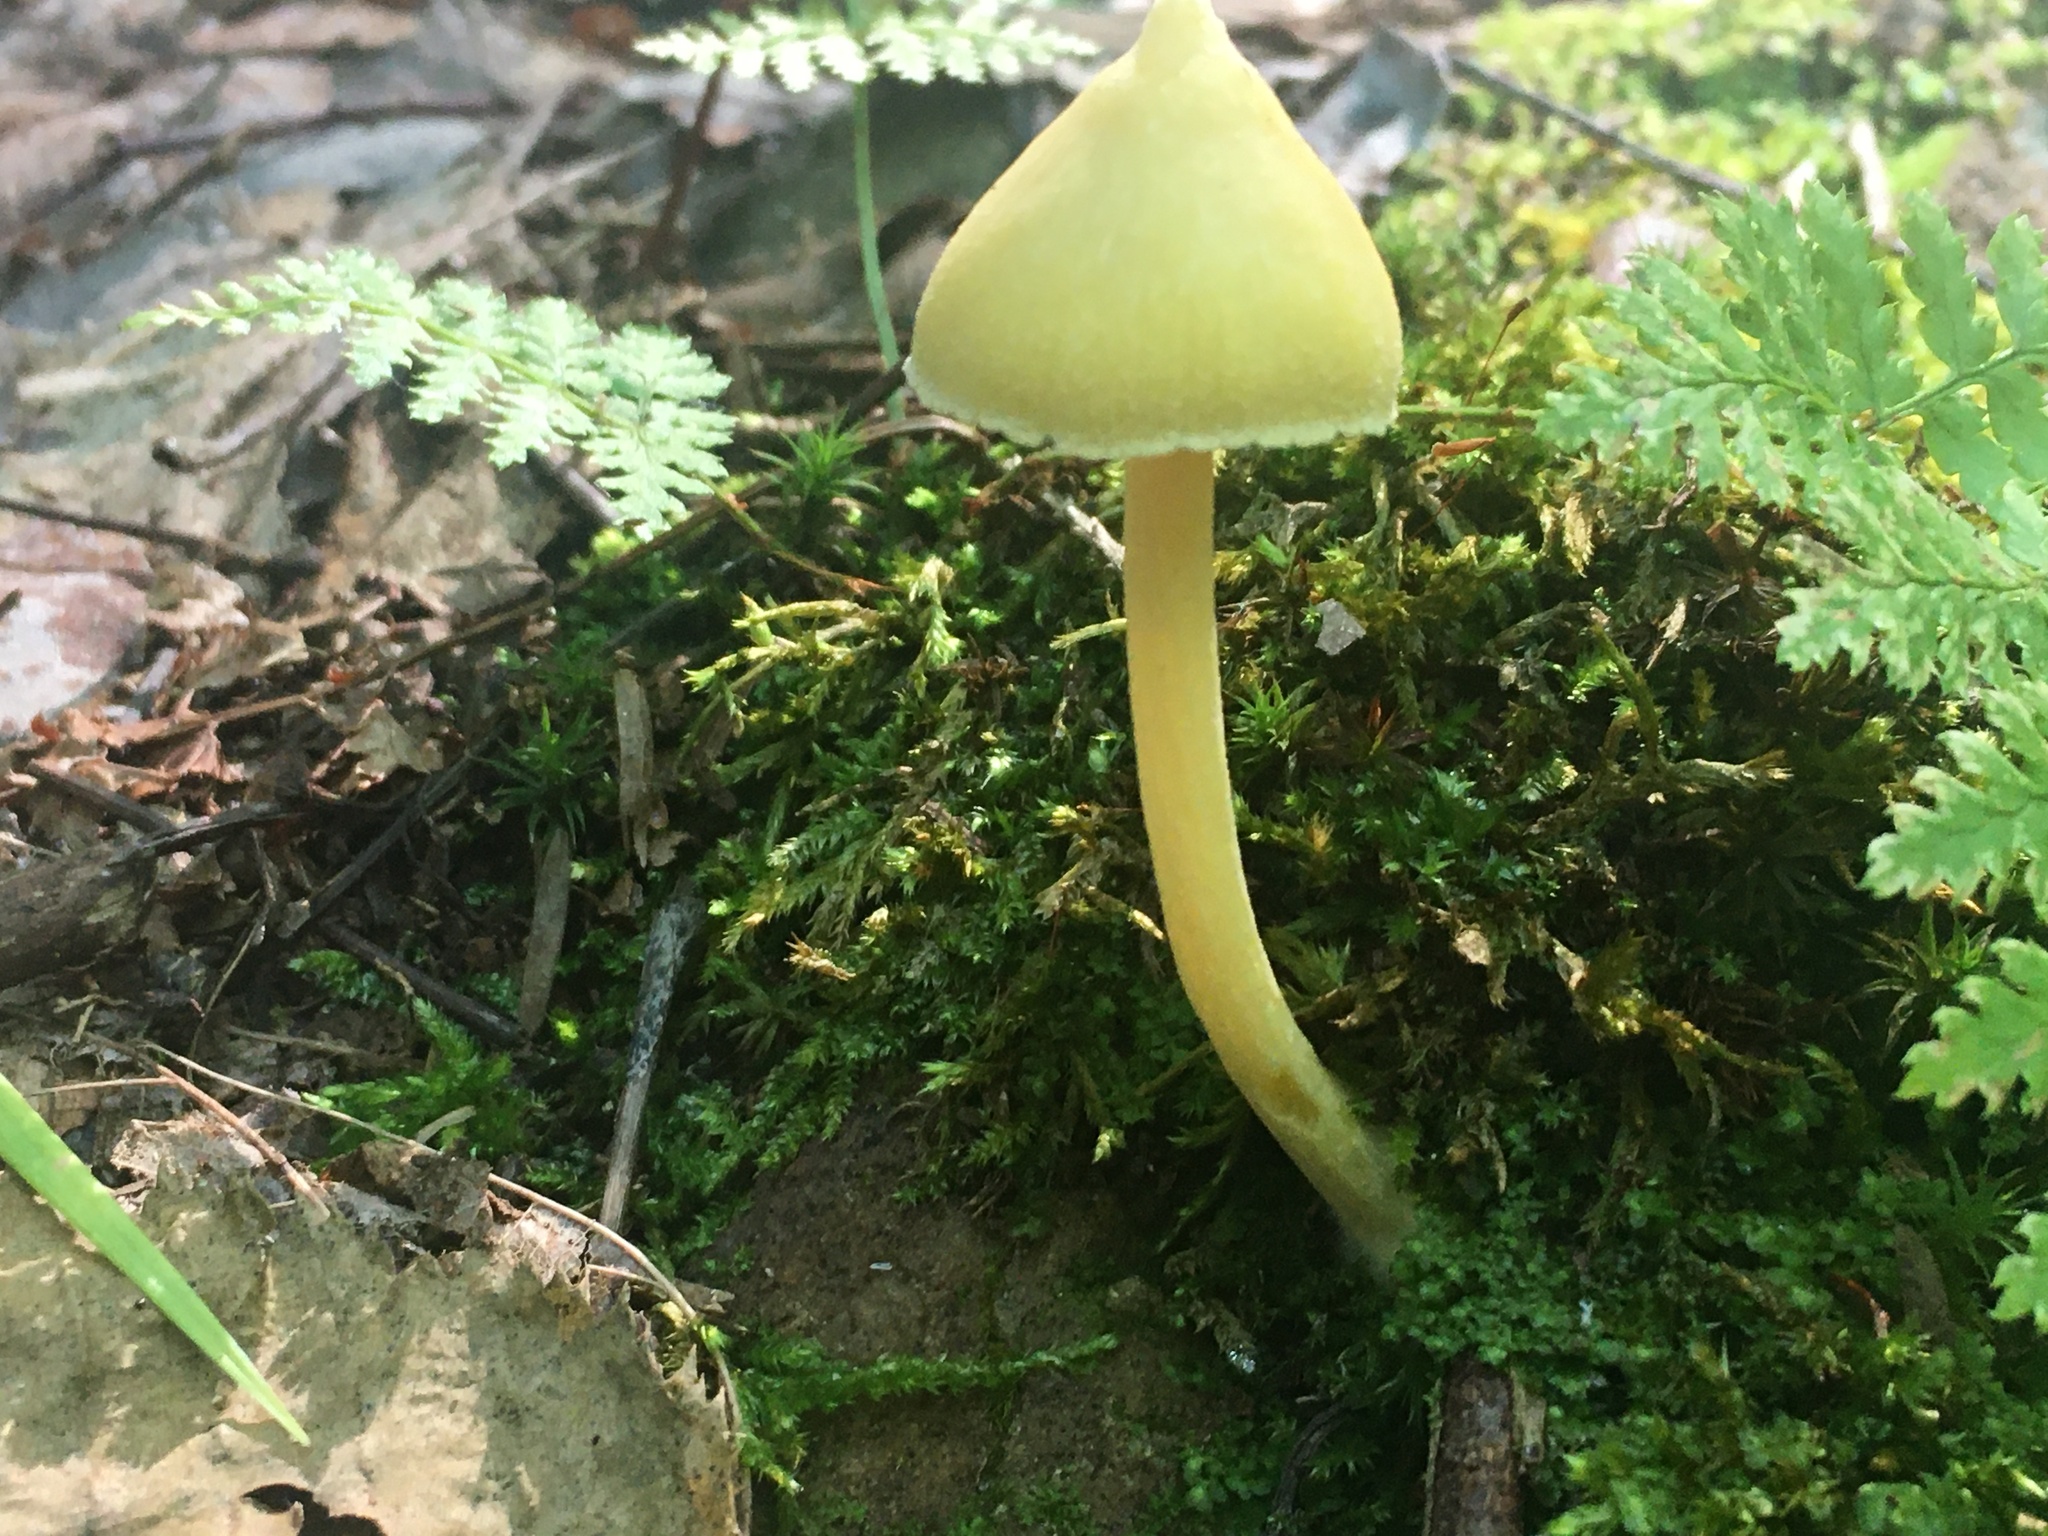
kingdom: Fungi
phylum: Basidiomycota
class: Agaricomycetes
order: Agaricales
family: Entolomataceae
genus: Entoloma
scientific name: Entoloma murrayi
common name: Yellow unicorn entoloma
